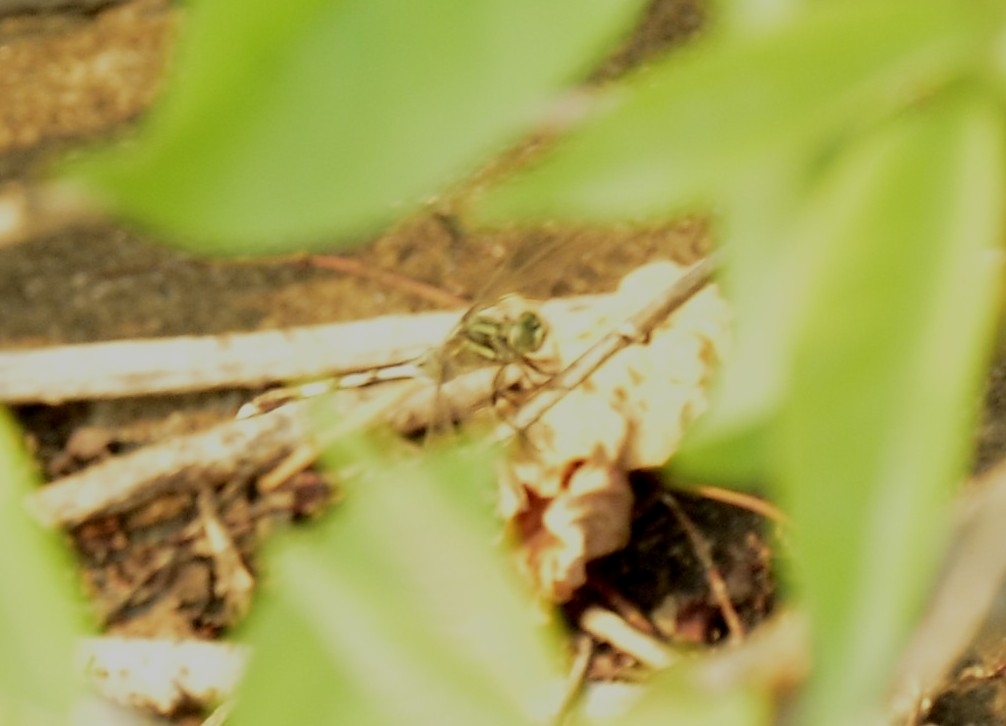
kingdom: Animalia
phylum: Arthropoda
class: Insecta
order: Odonata
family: Libellulidae
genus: Orthetrum
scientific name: Orthetrum sabina
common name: Slender skimmer
